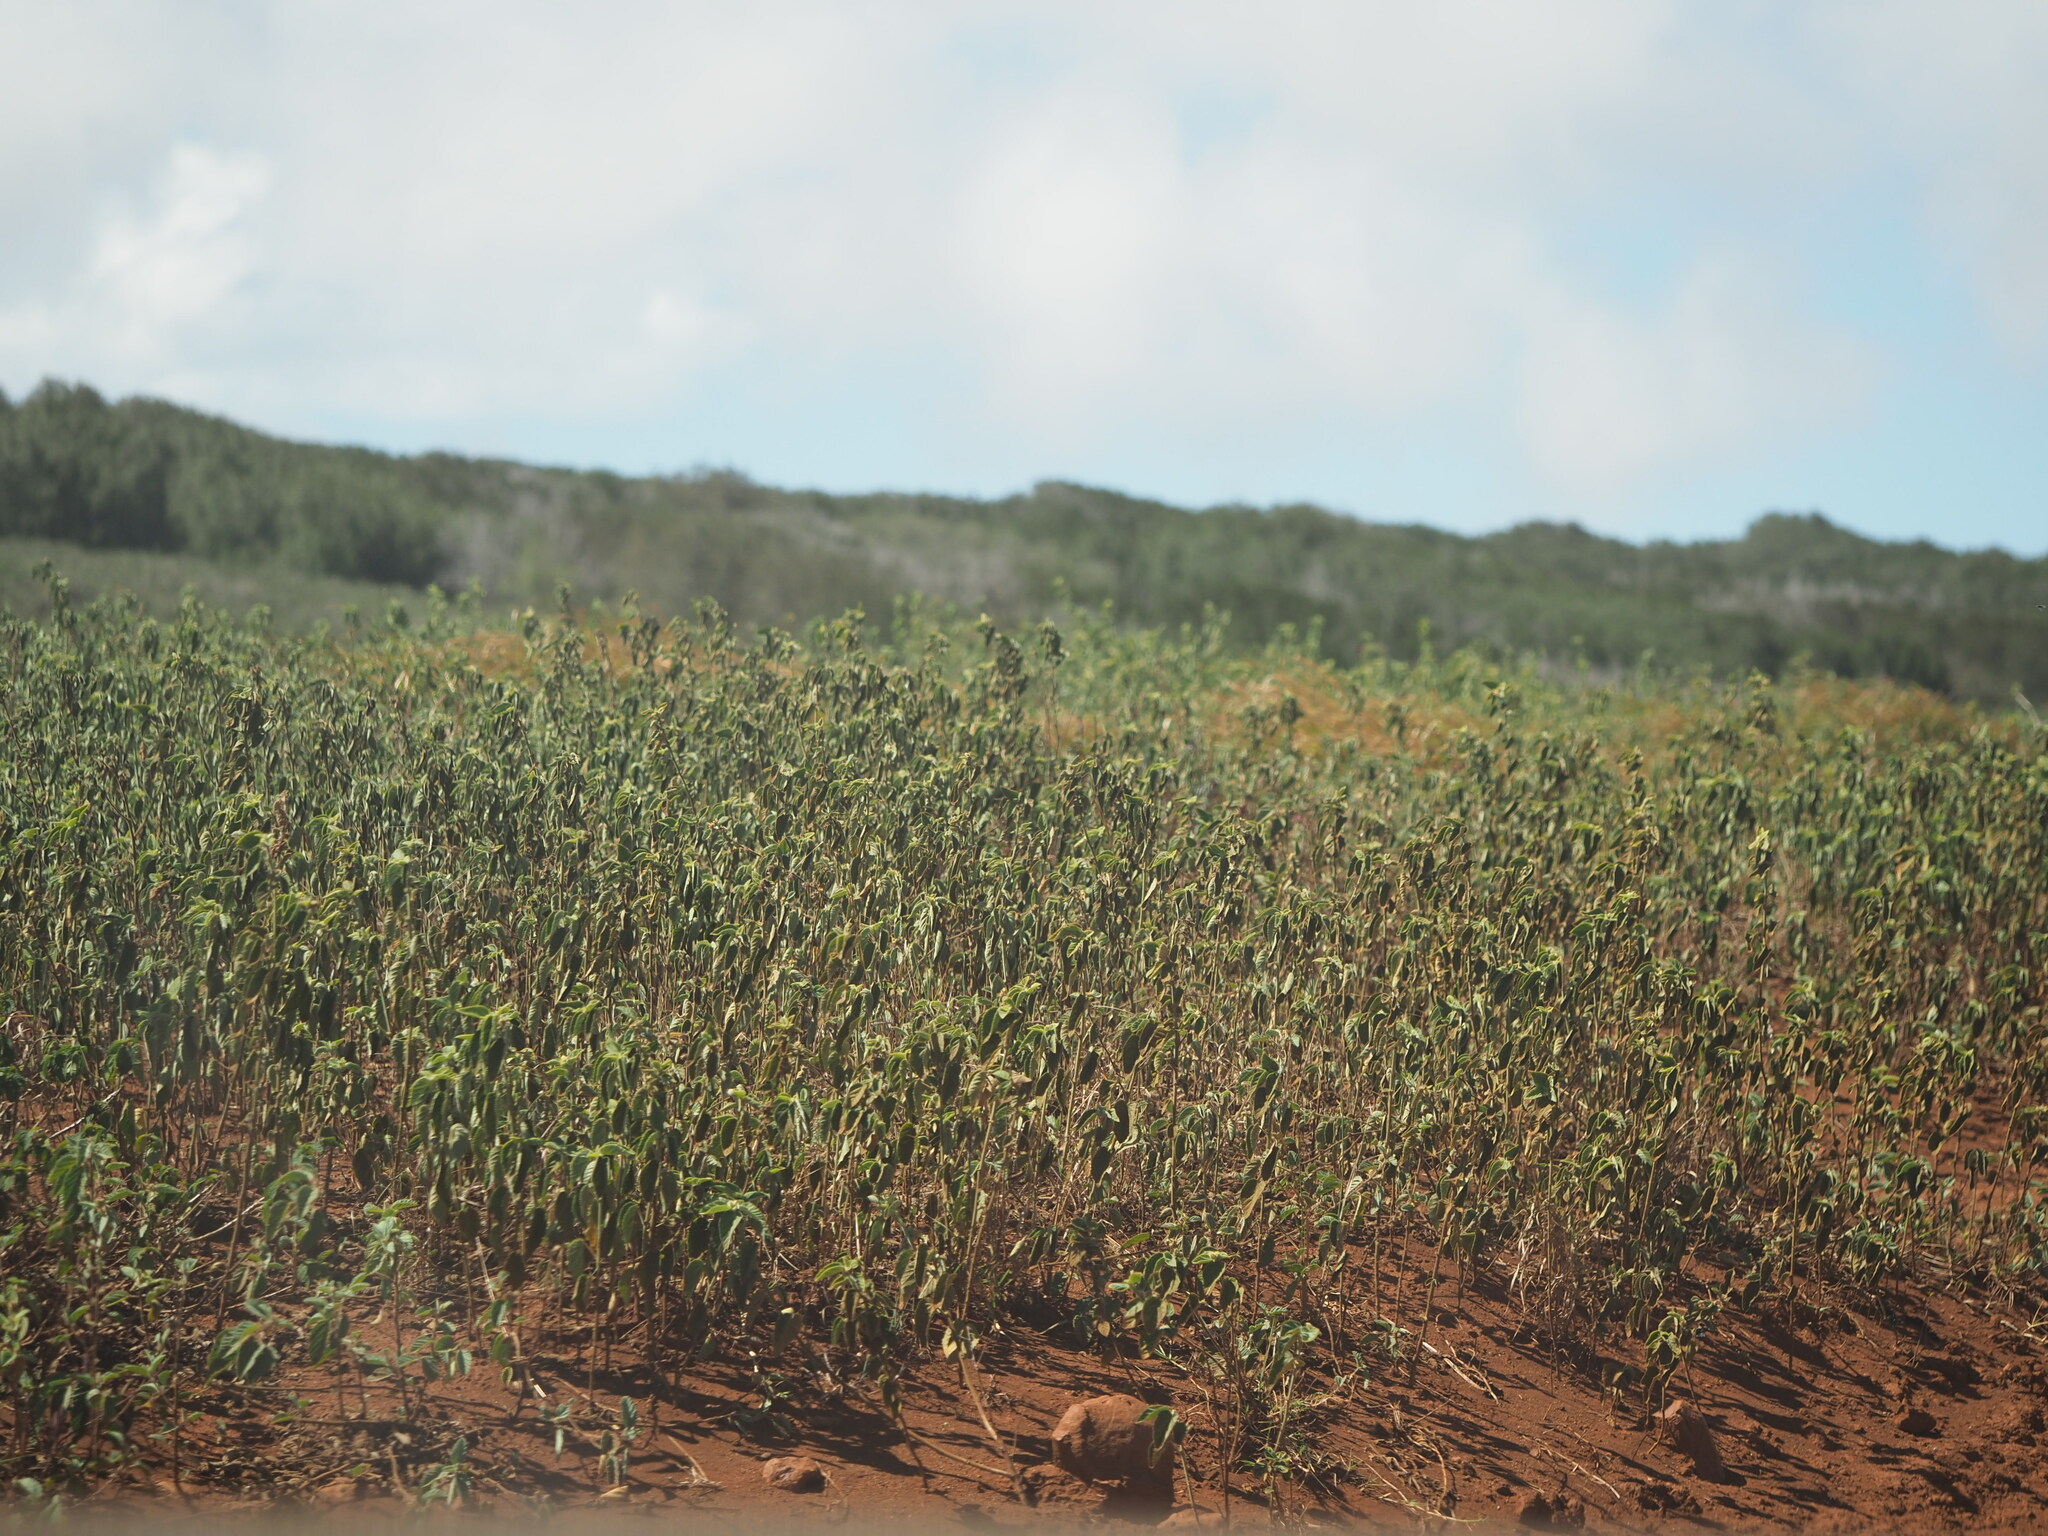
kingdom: Plantae
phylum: Tracheophyta
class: Magnoliopsida
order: Malvales
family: Malvaceae
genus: Sida
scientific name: Sida cordifolia
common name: Ilima
